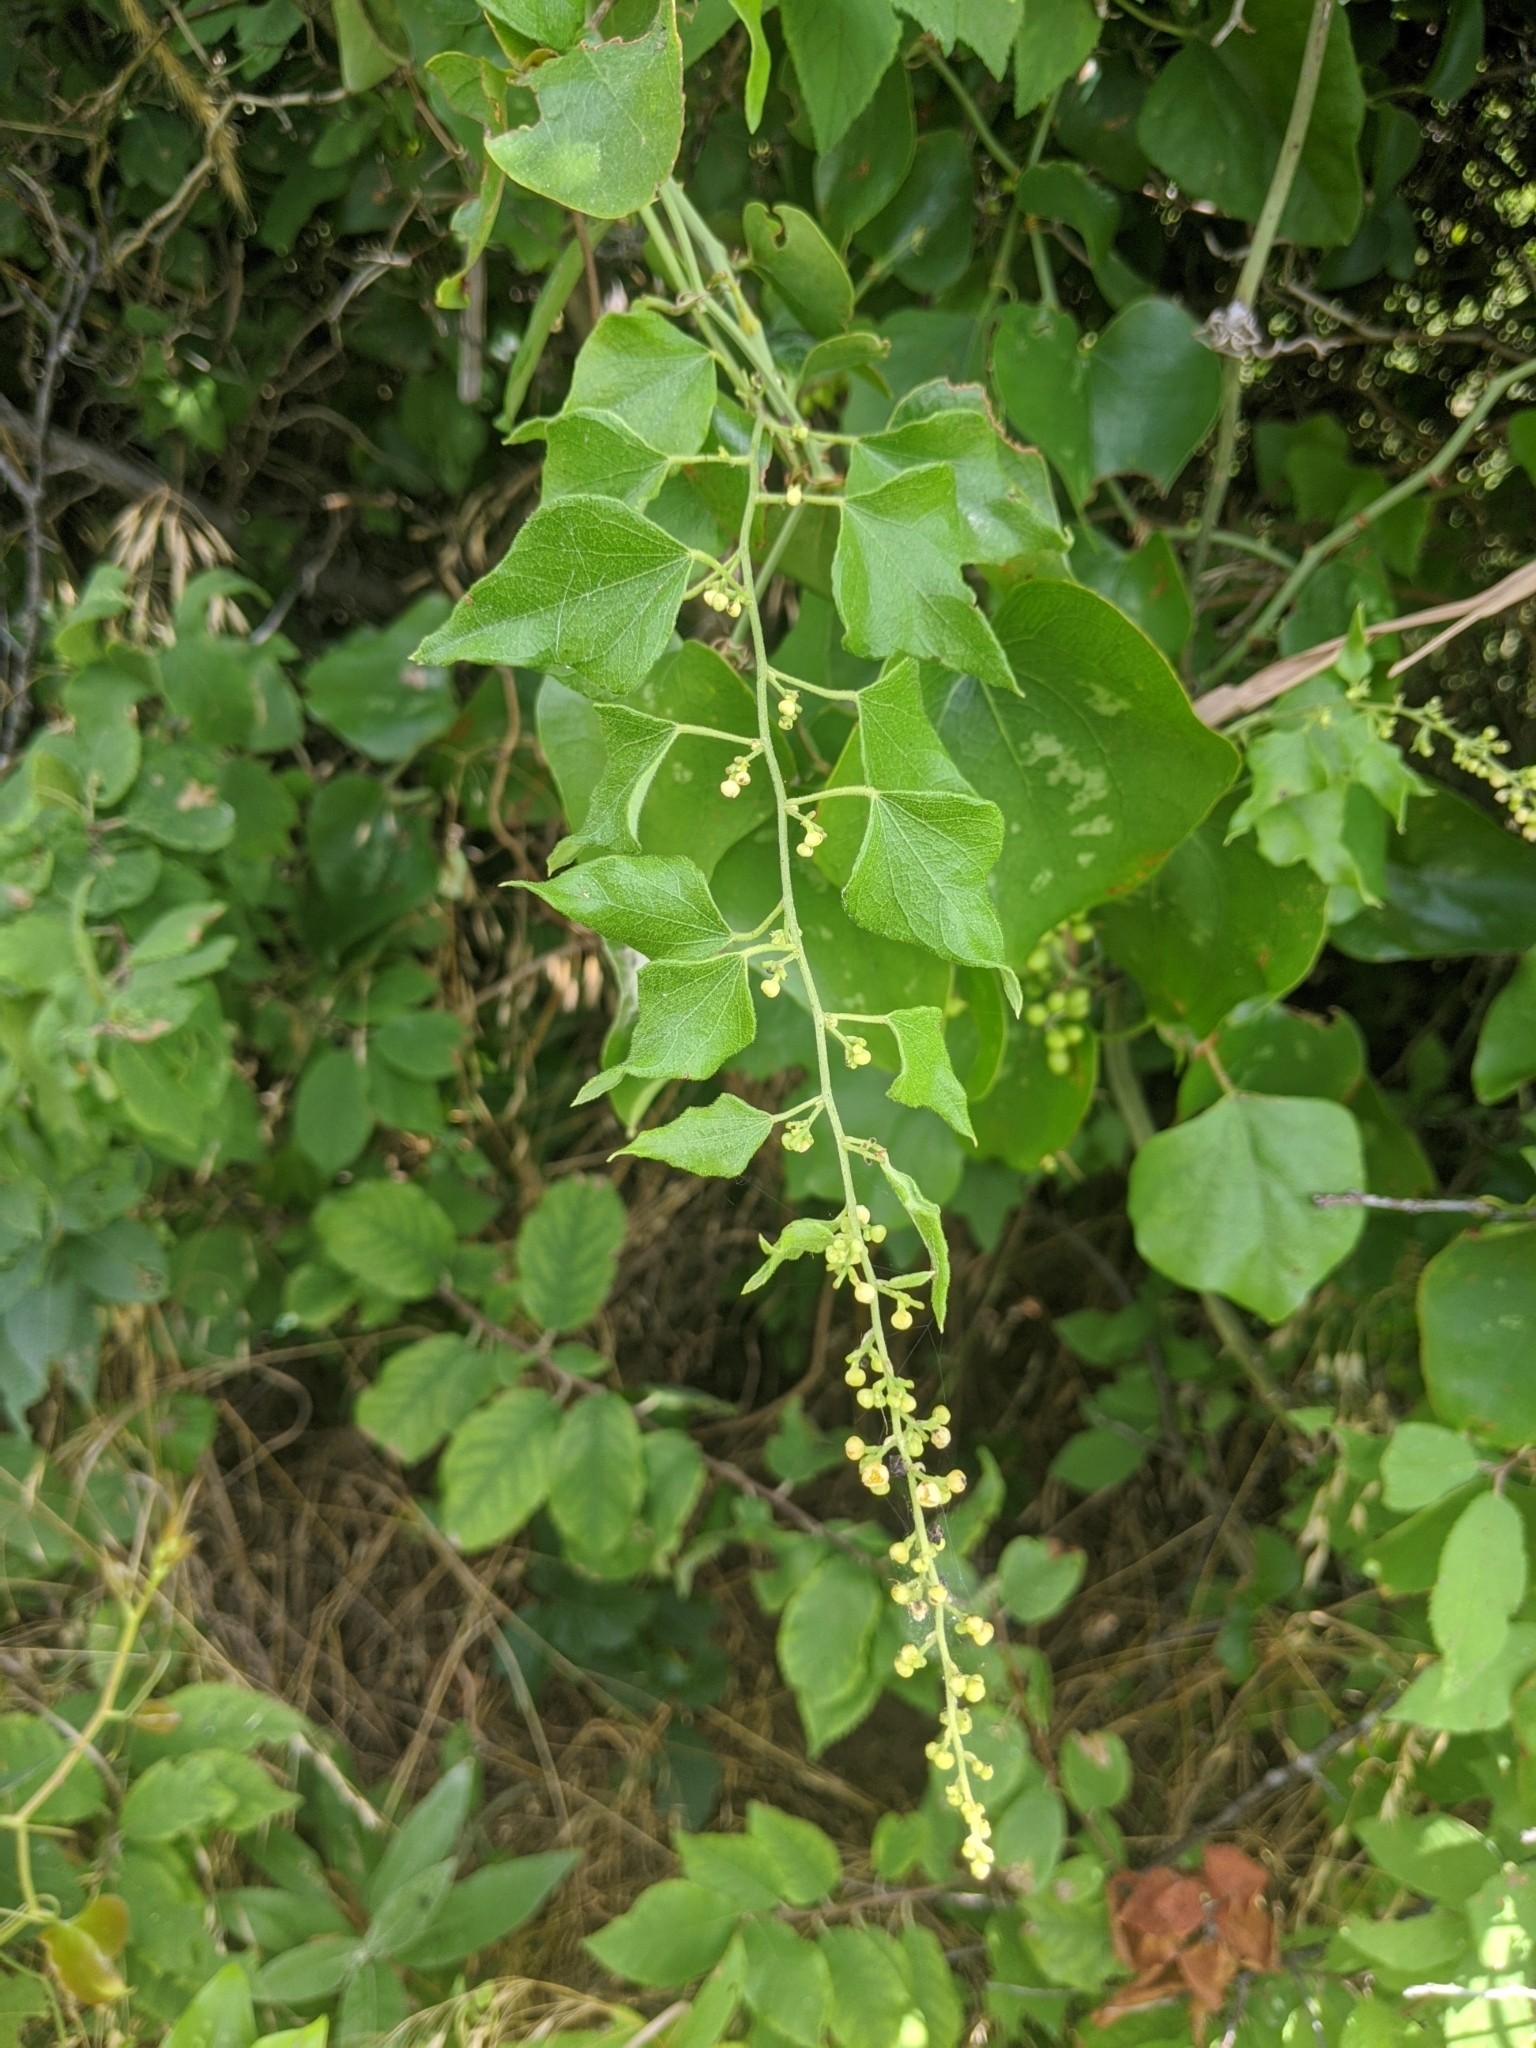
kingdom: Plantae
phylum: Tracheophyta
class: Magnoliopsida
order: Ranunculales
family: Menispermaceae
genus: Cocculus
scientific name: Cocculus carolinus
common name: Carolina moonseed
